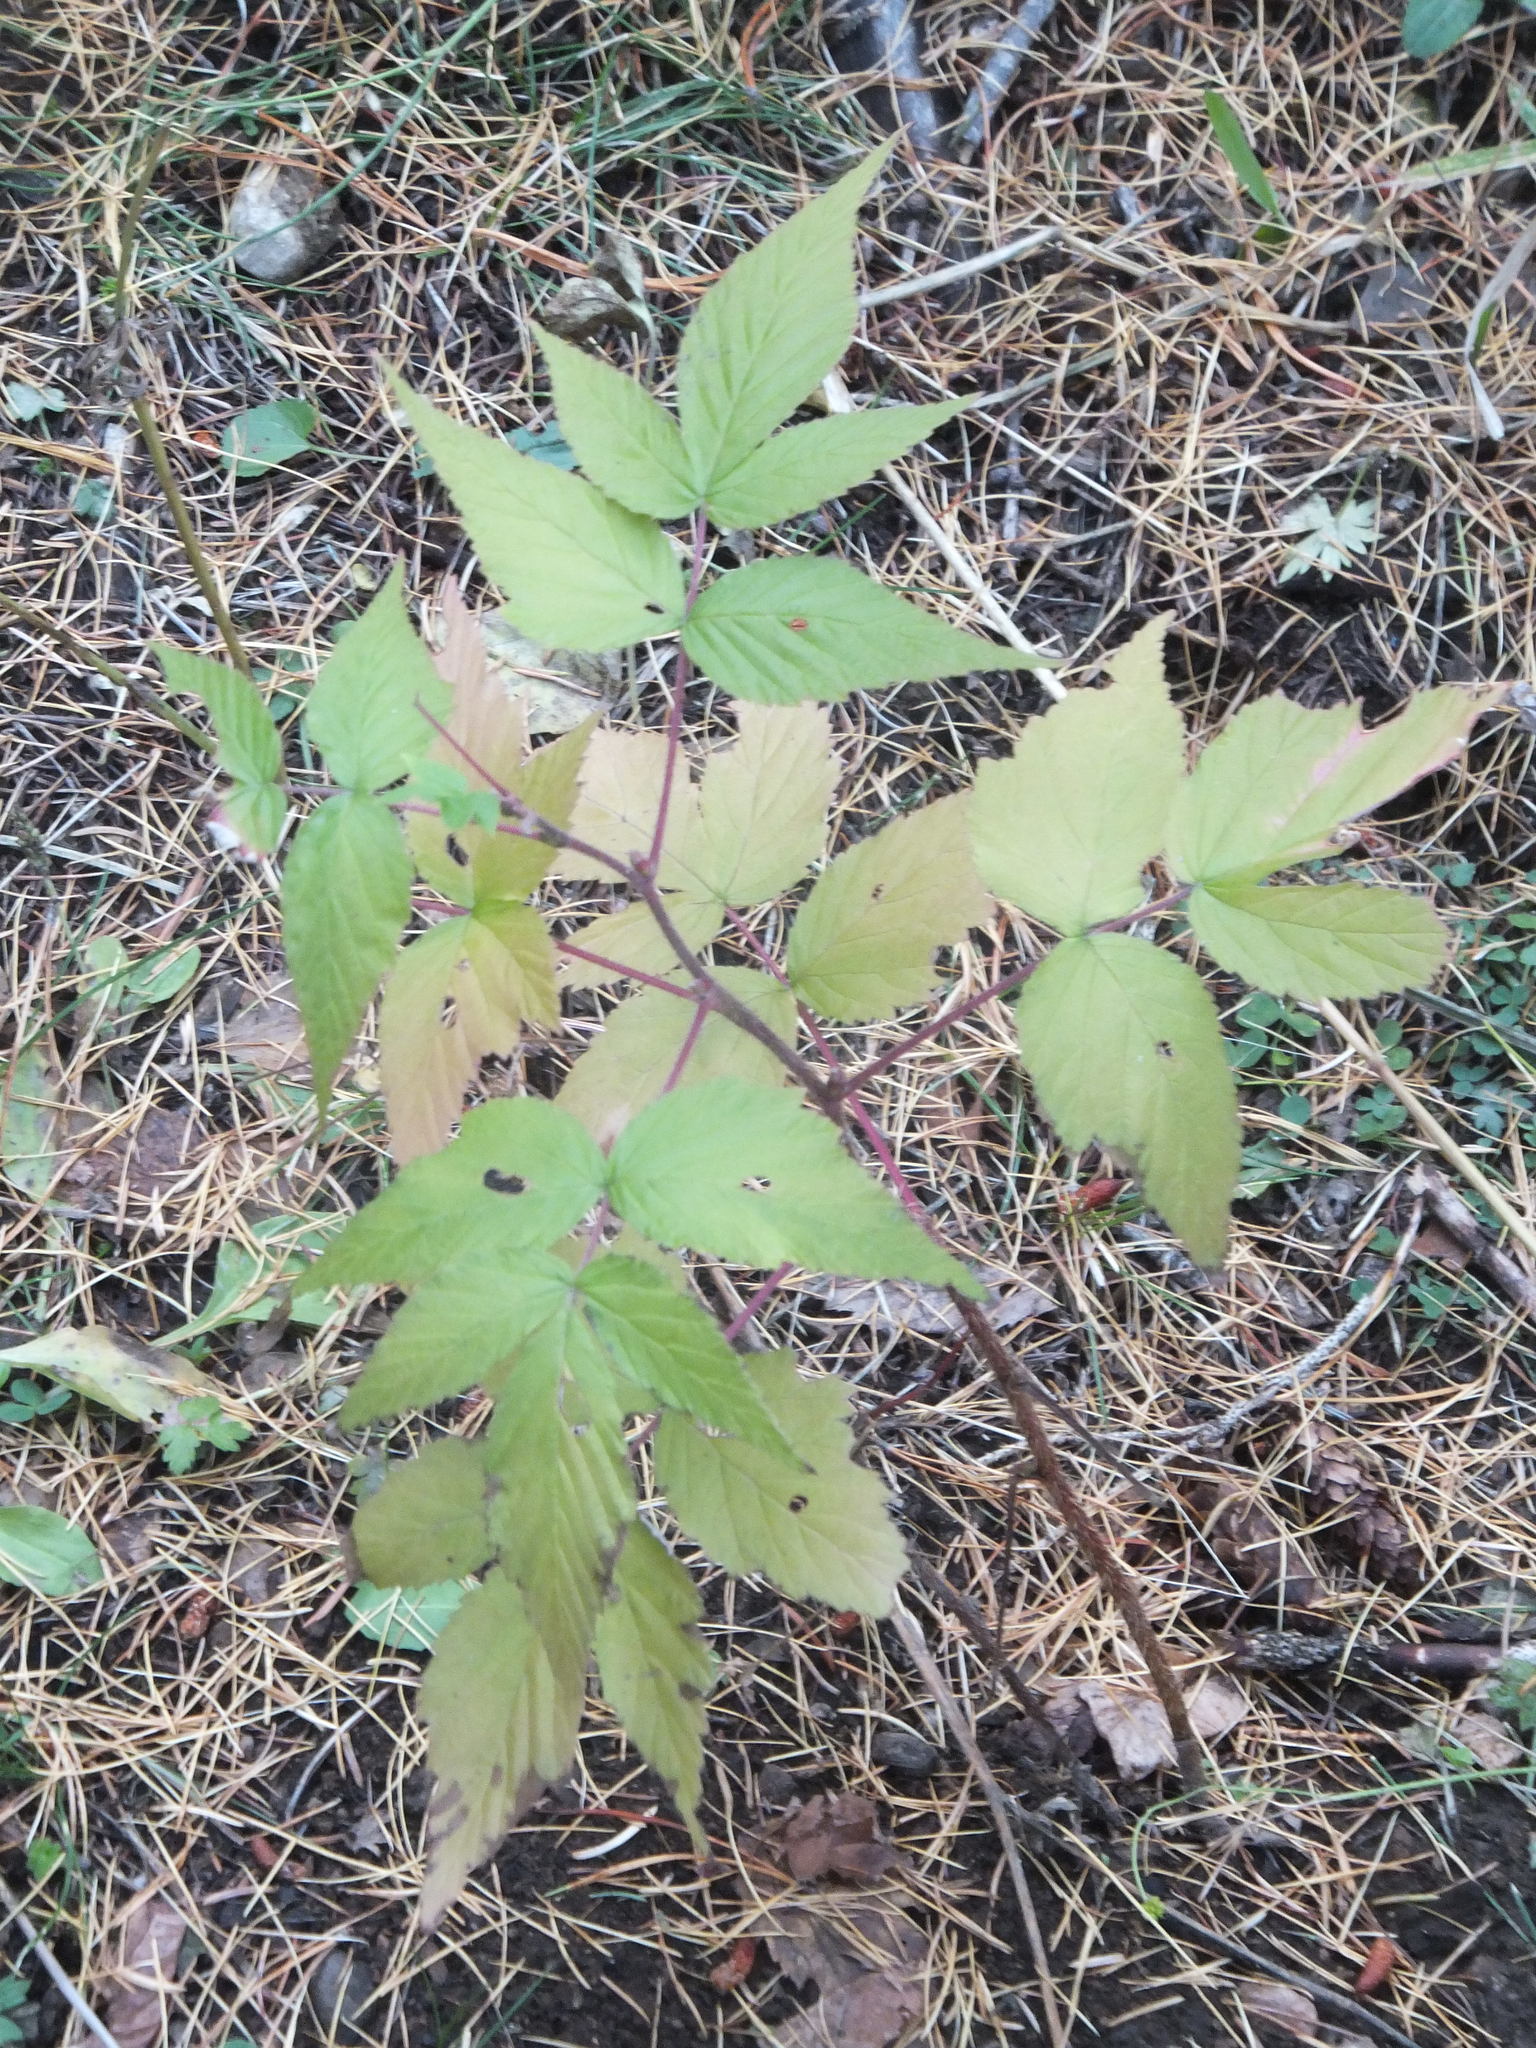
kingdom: Plantae
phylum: Tracheophyta
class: Magnoliopsida
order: Rosales
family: Rosaceae
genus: Rubus
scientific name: Rubus idaeus
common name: Raspberry
